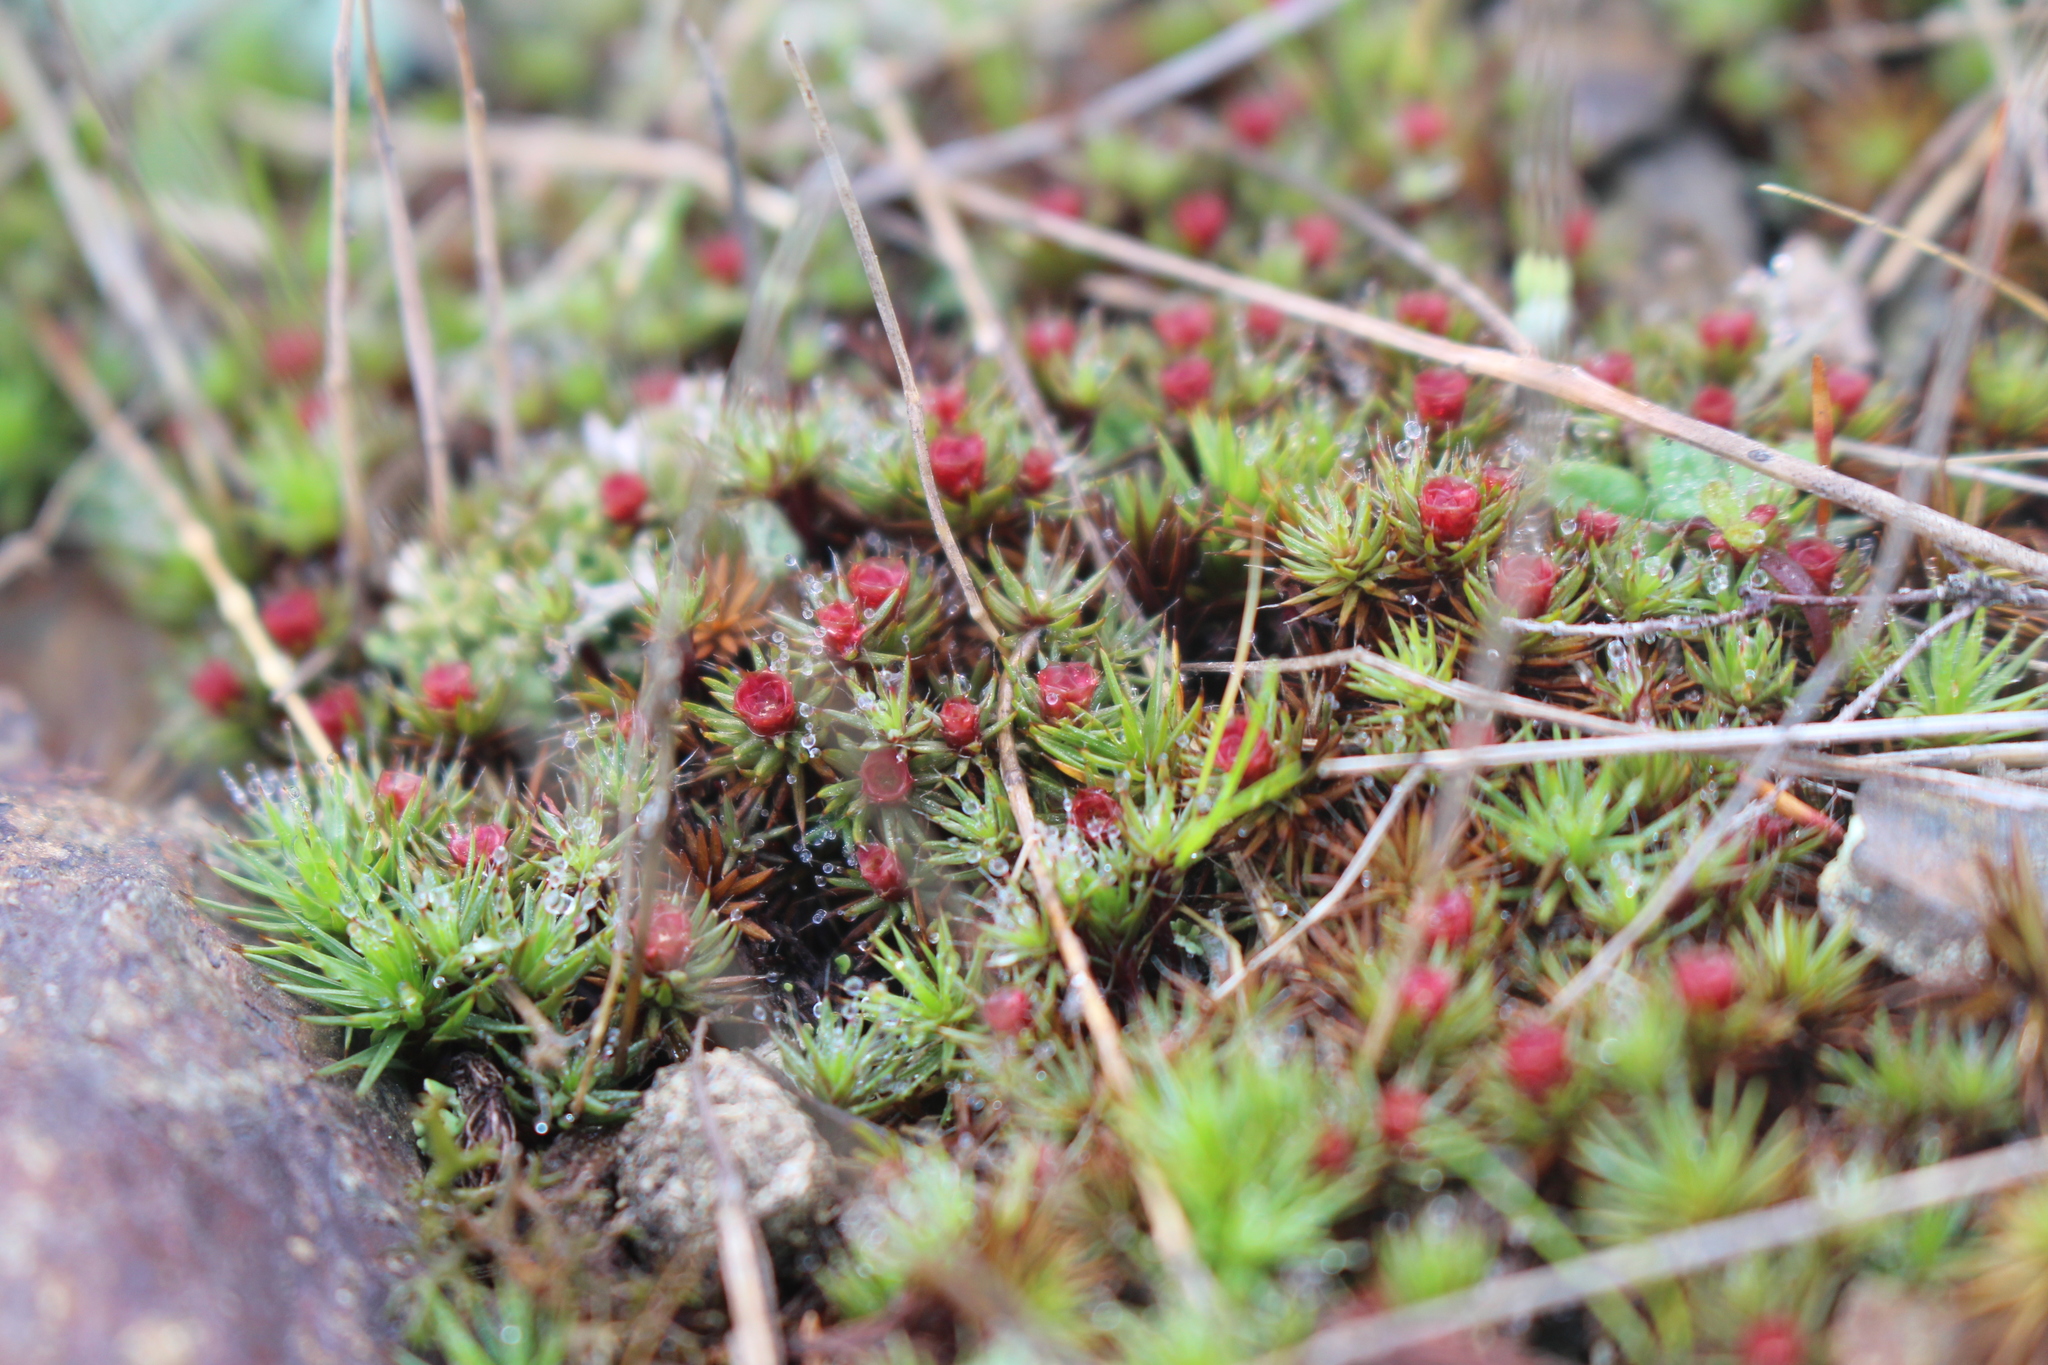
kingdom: Plantae
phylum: Bryophyta
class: Polytrichopsida
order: Polytrichales
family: Polytrichaceae
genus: Polytrichum
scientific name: Polytrichum piliferum
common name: Bristly haircap
